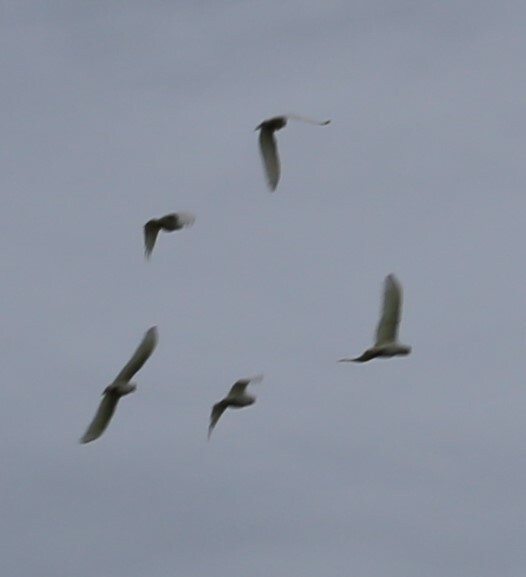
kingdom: Animalia
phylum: Chordata
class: Aves
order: Psittaciformes
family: Psittacidae
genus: Cacatua
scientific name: Cacatua sanguinea
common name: Little corella
